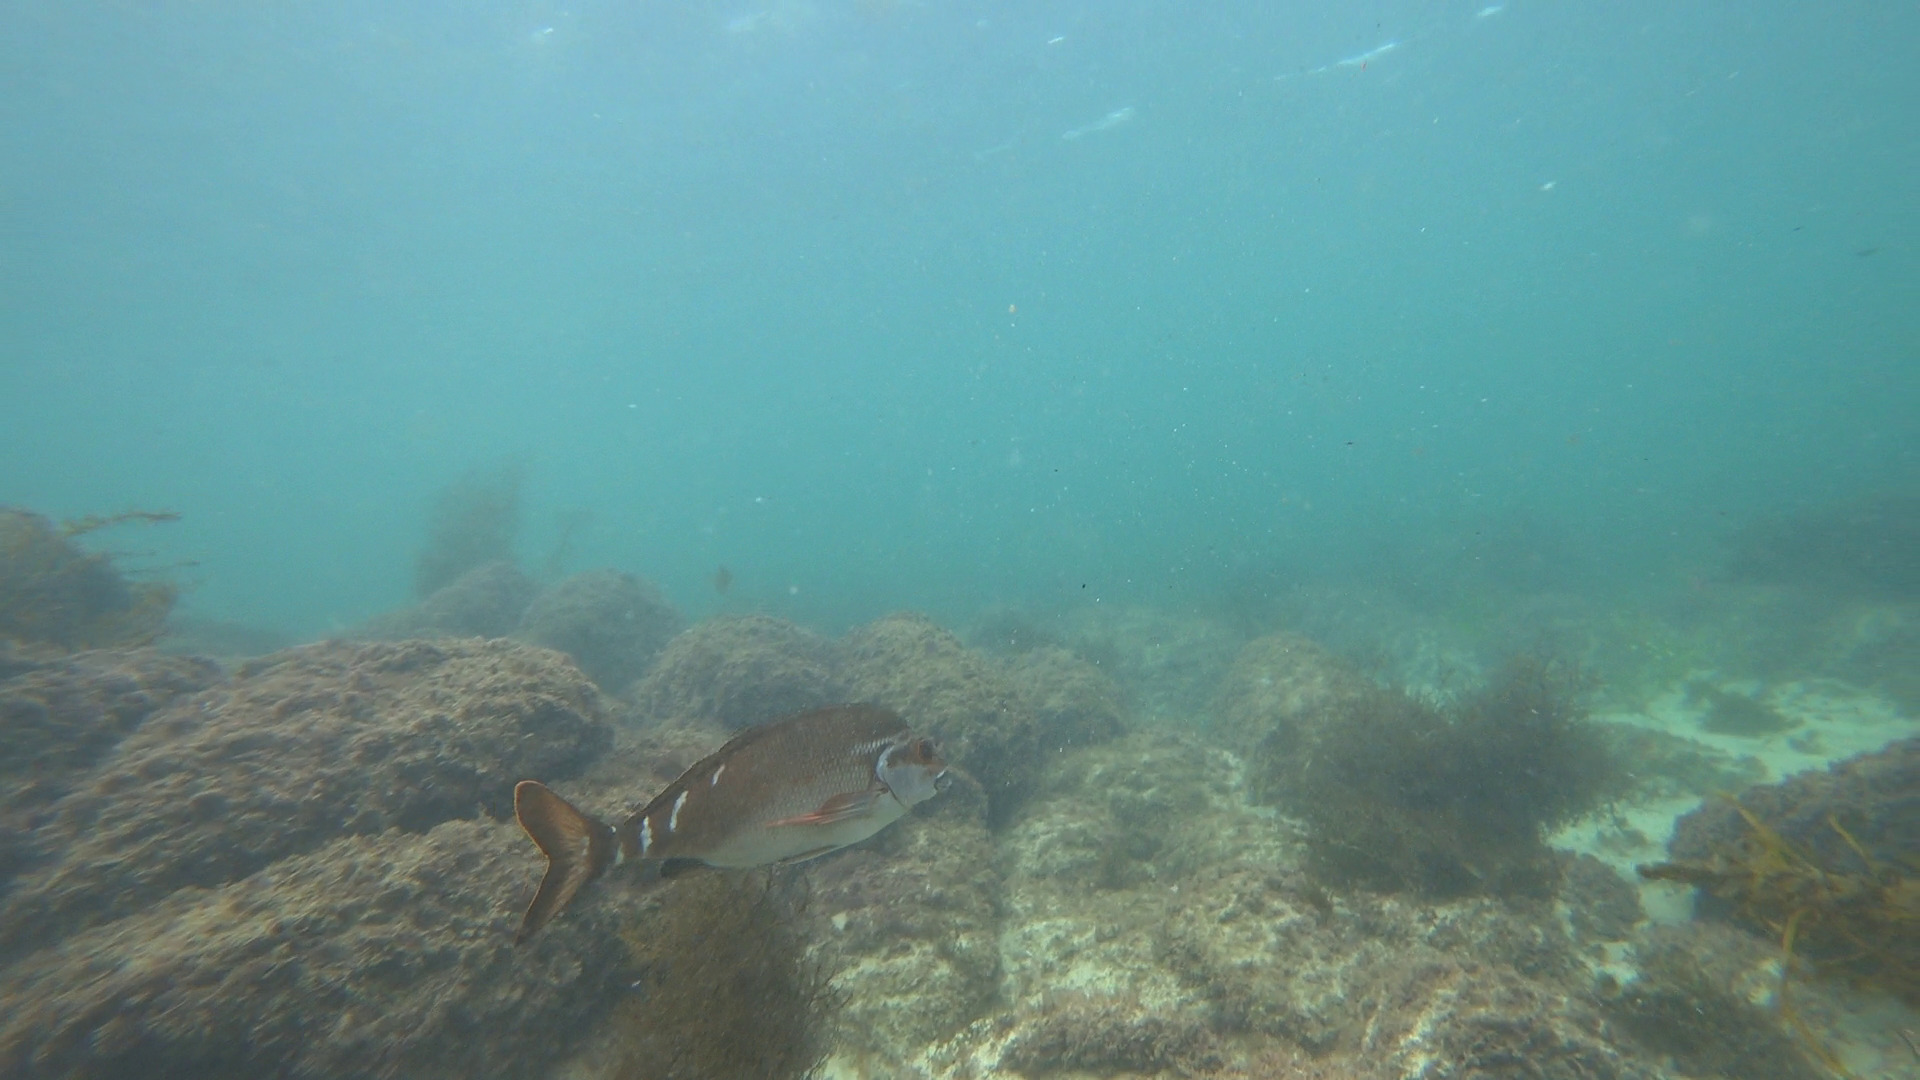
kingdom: Animalia
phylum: Chordata
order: Perciformes
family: Latridae
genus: Morwong
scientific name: Morwong fuscus
